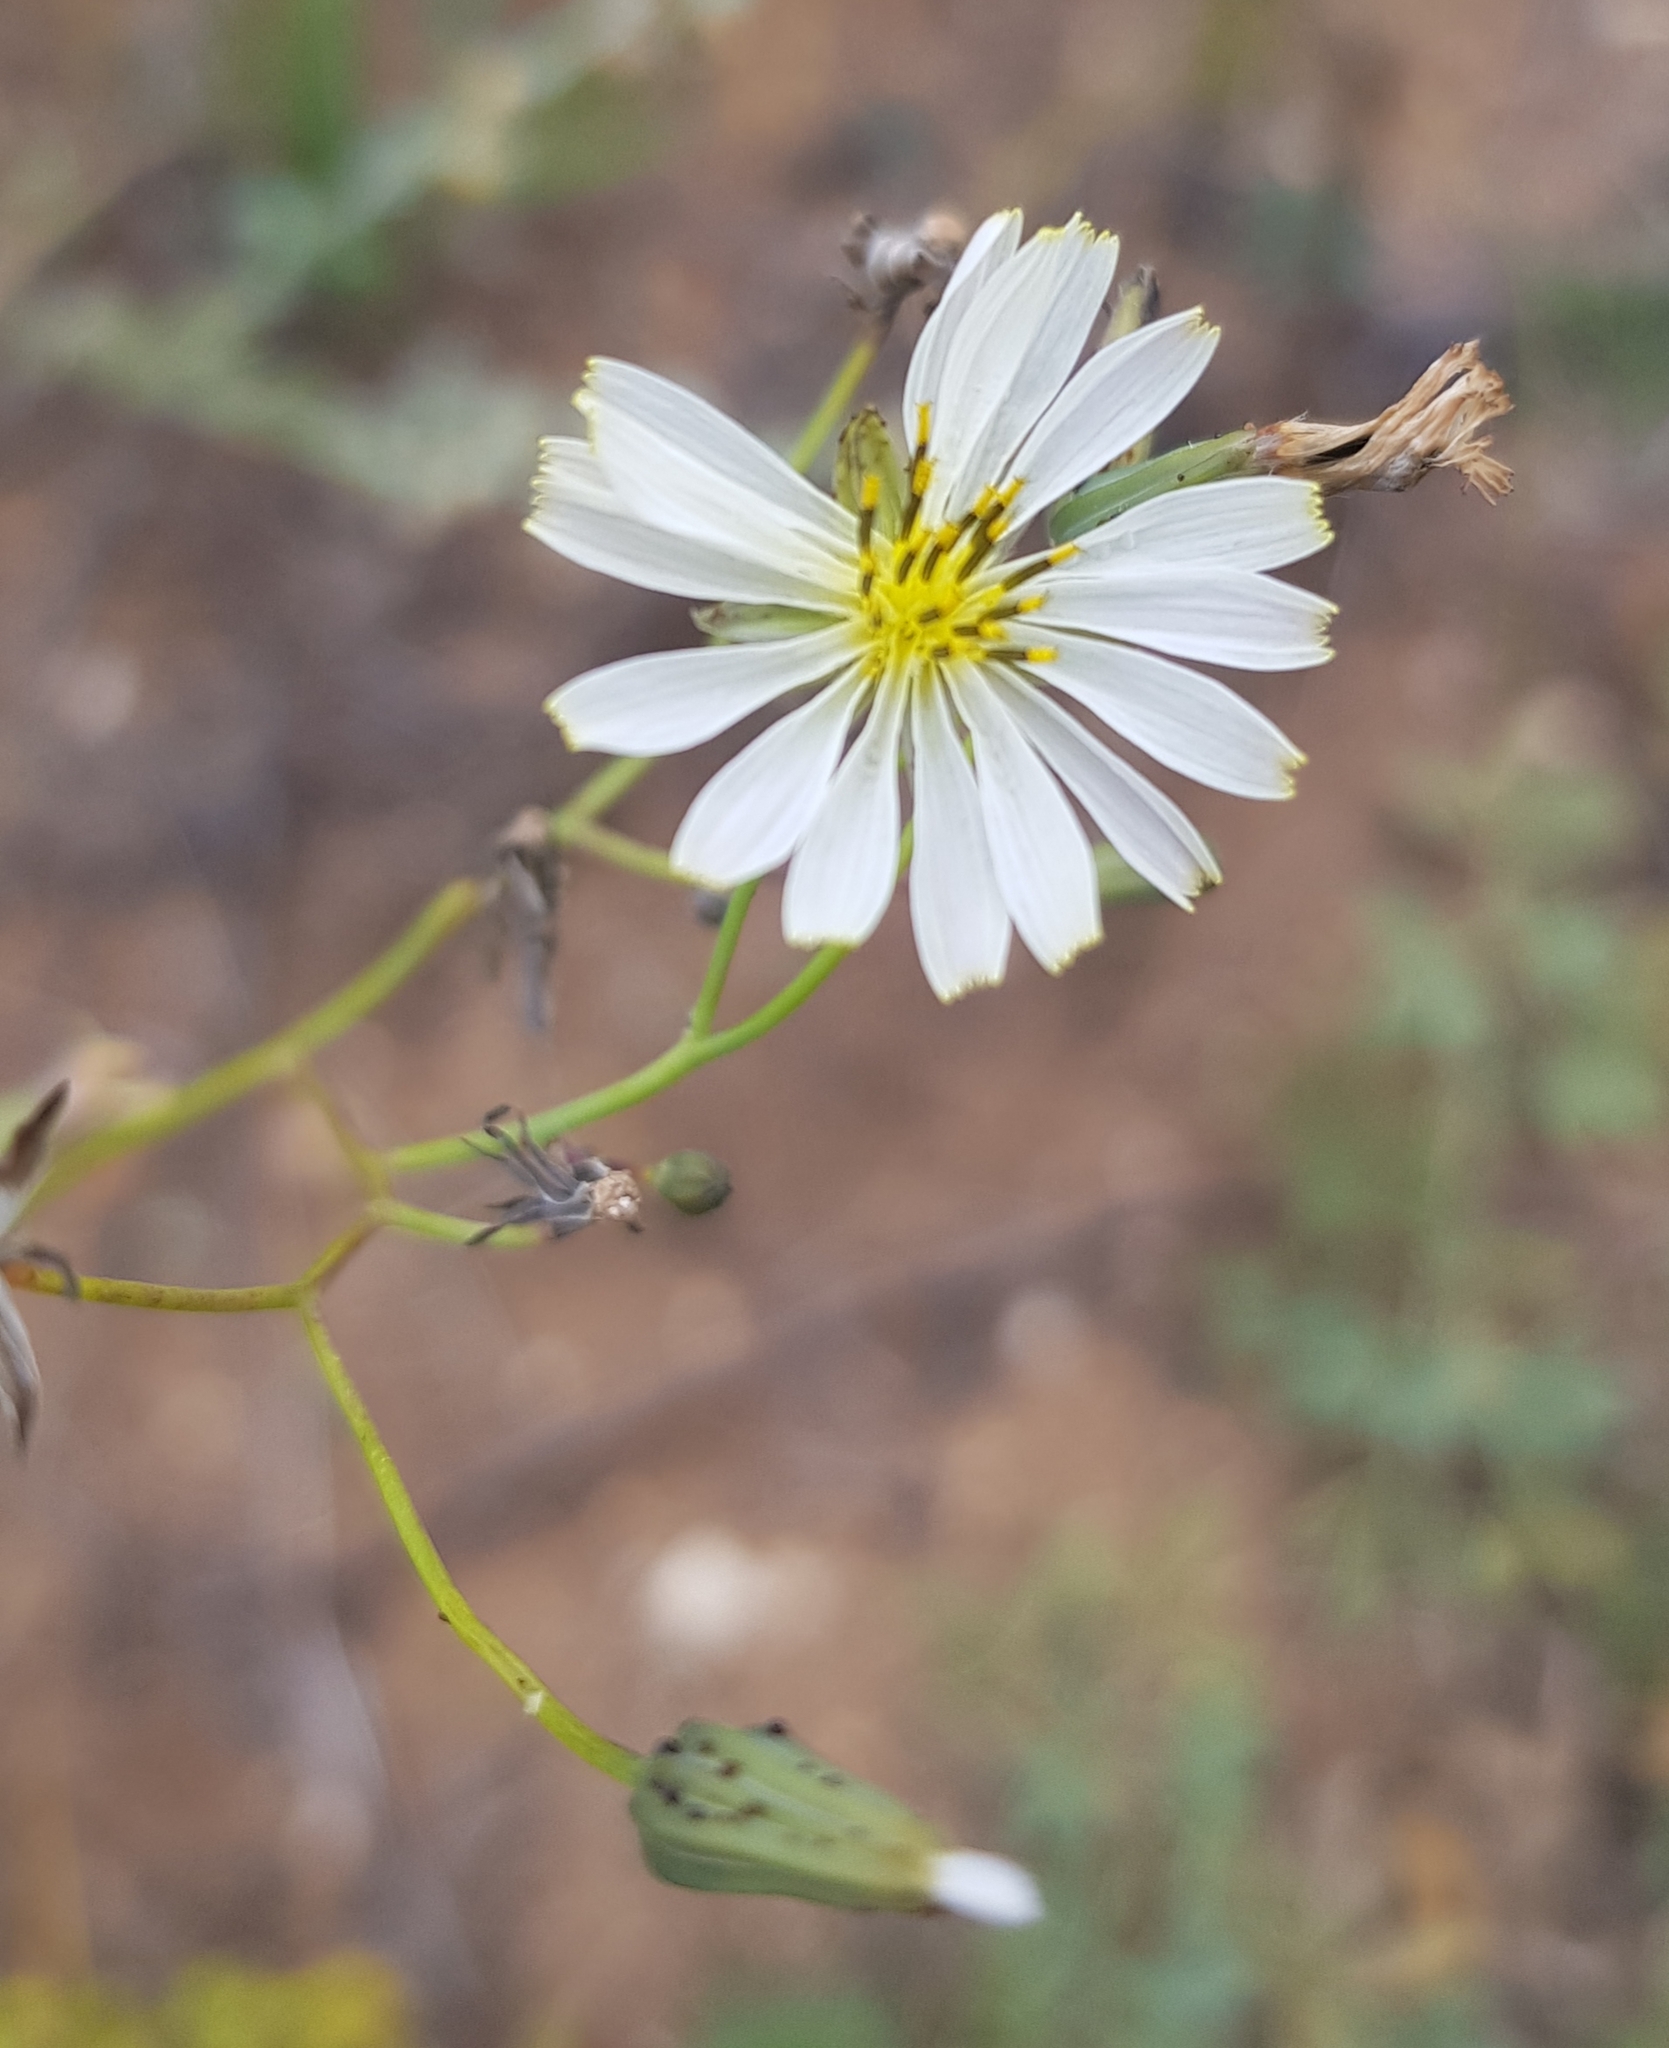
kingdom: Plantae
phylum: Tracheophyta
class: Magnoliopsida
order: Asterales
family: Asteraceae
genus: Ixeris
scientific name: Ixeris chinensis
